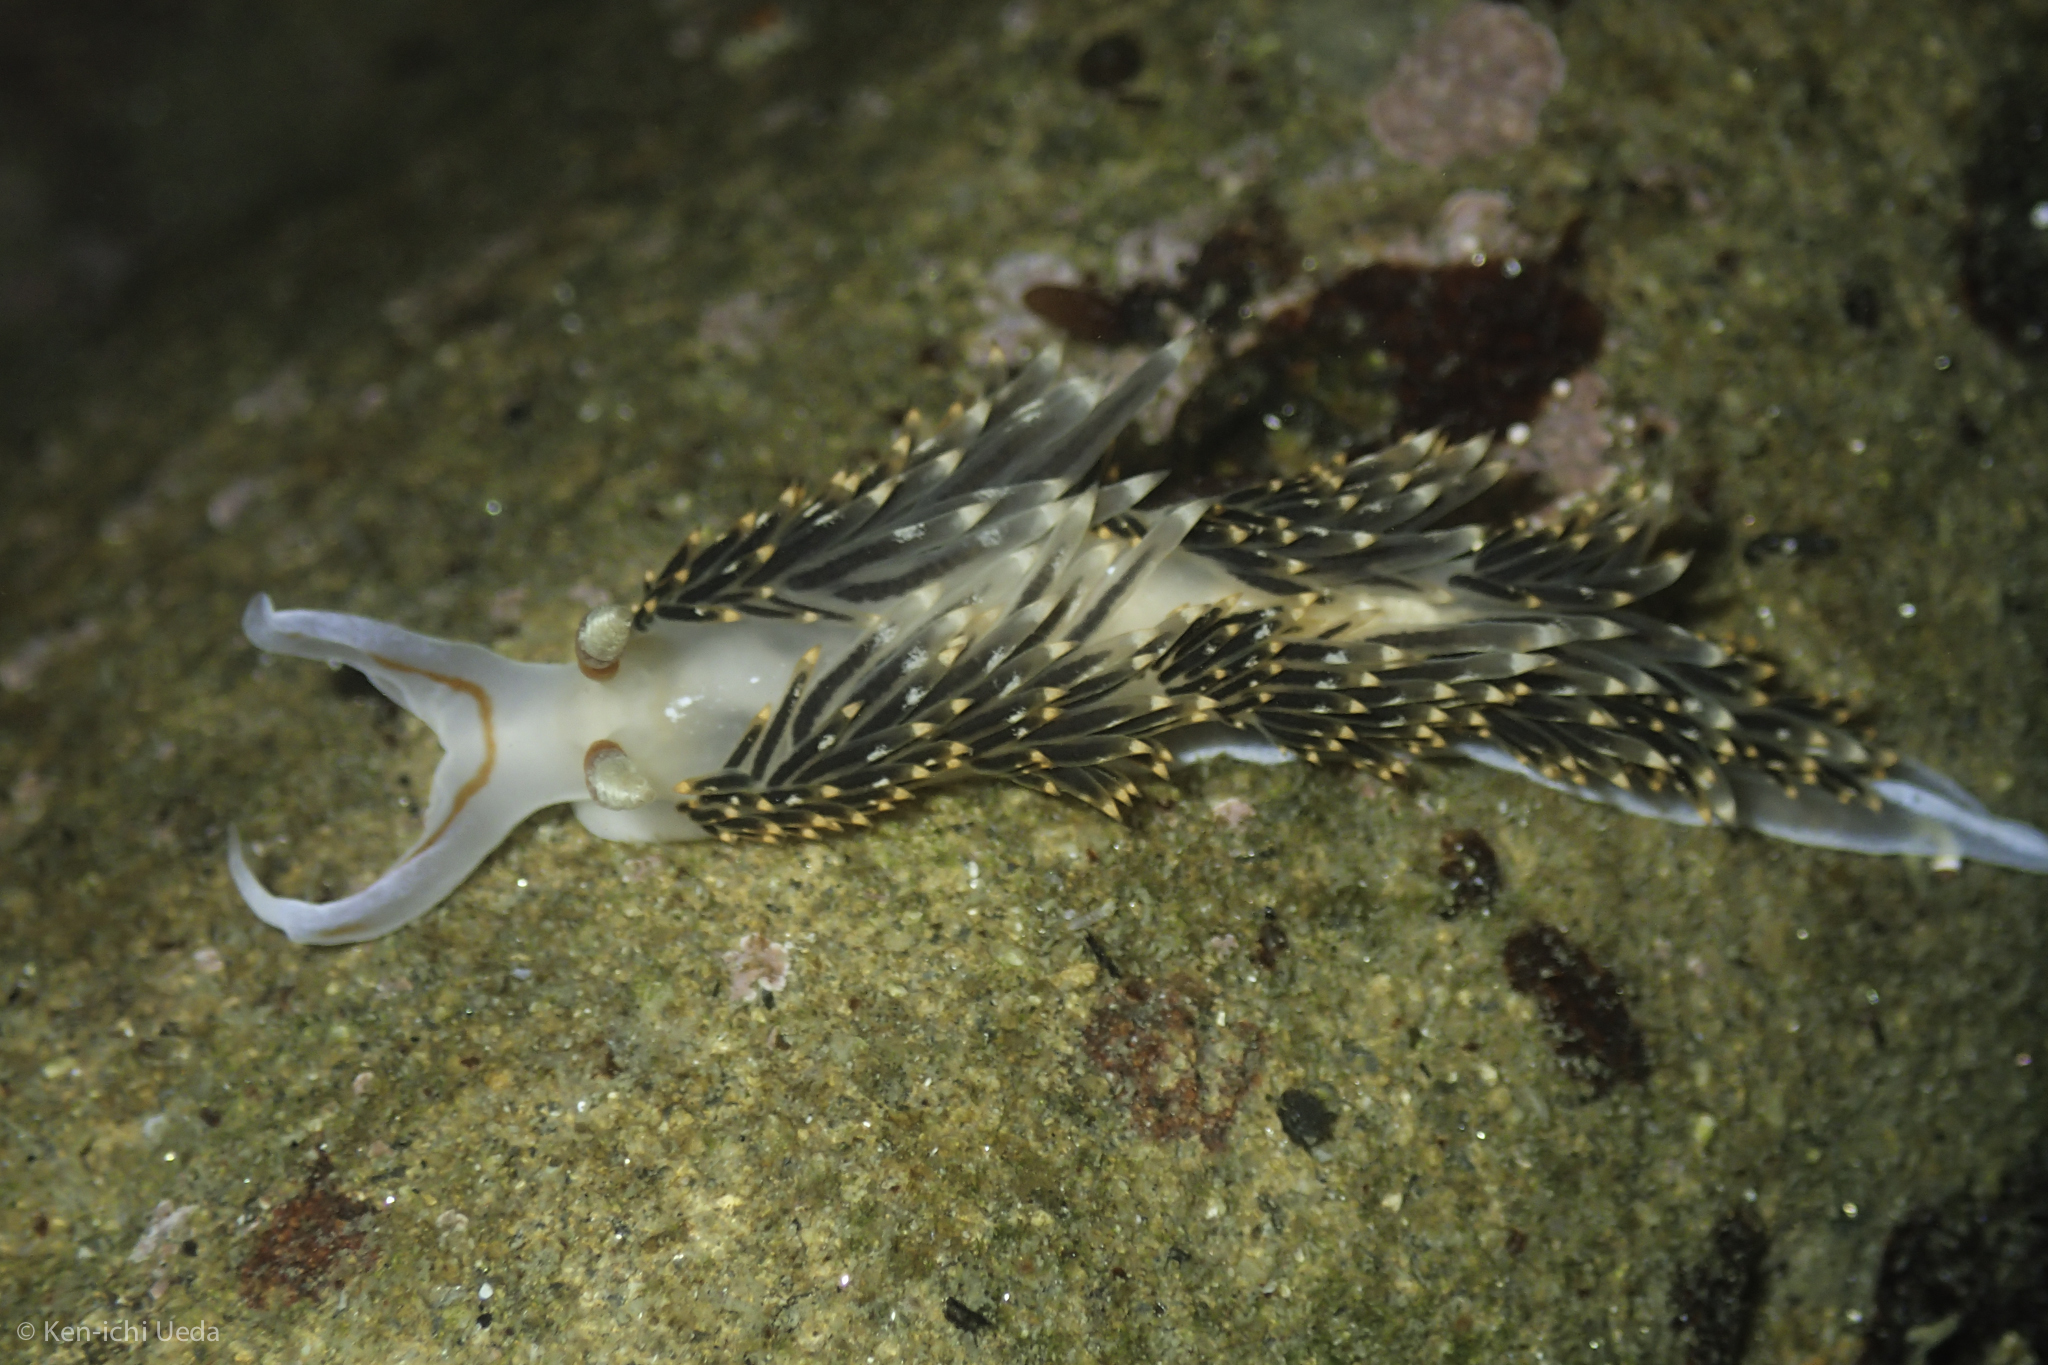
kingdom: Animalia
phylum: Mollusca
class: Gastropoda
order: Nudibranchia
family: Facelinidae
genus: Phidiana
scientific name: Phidiana hiltoni
